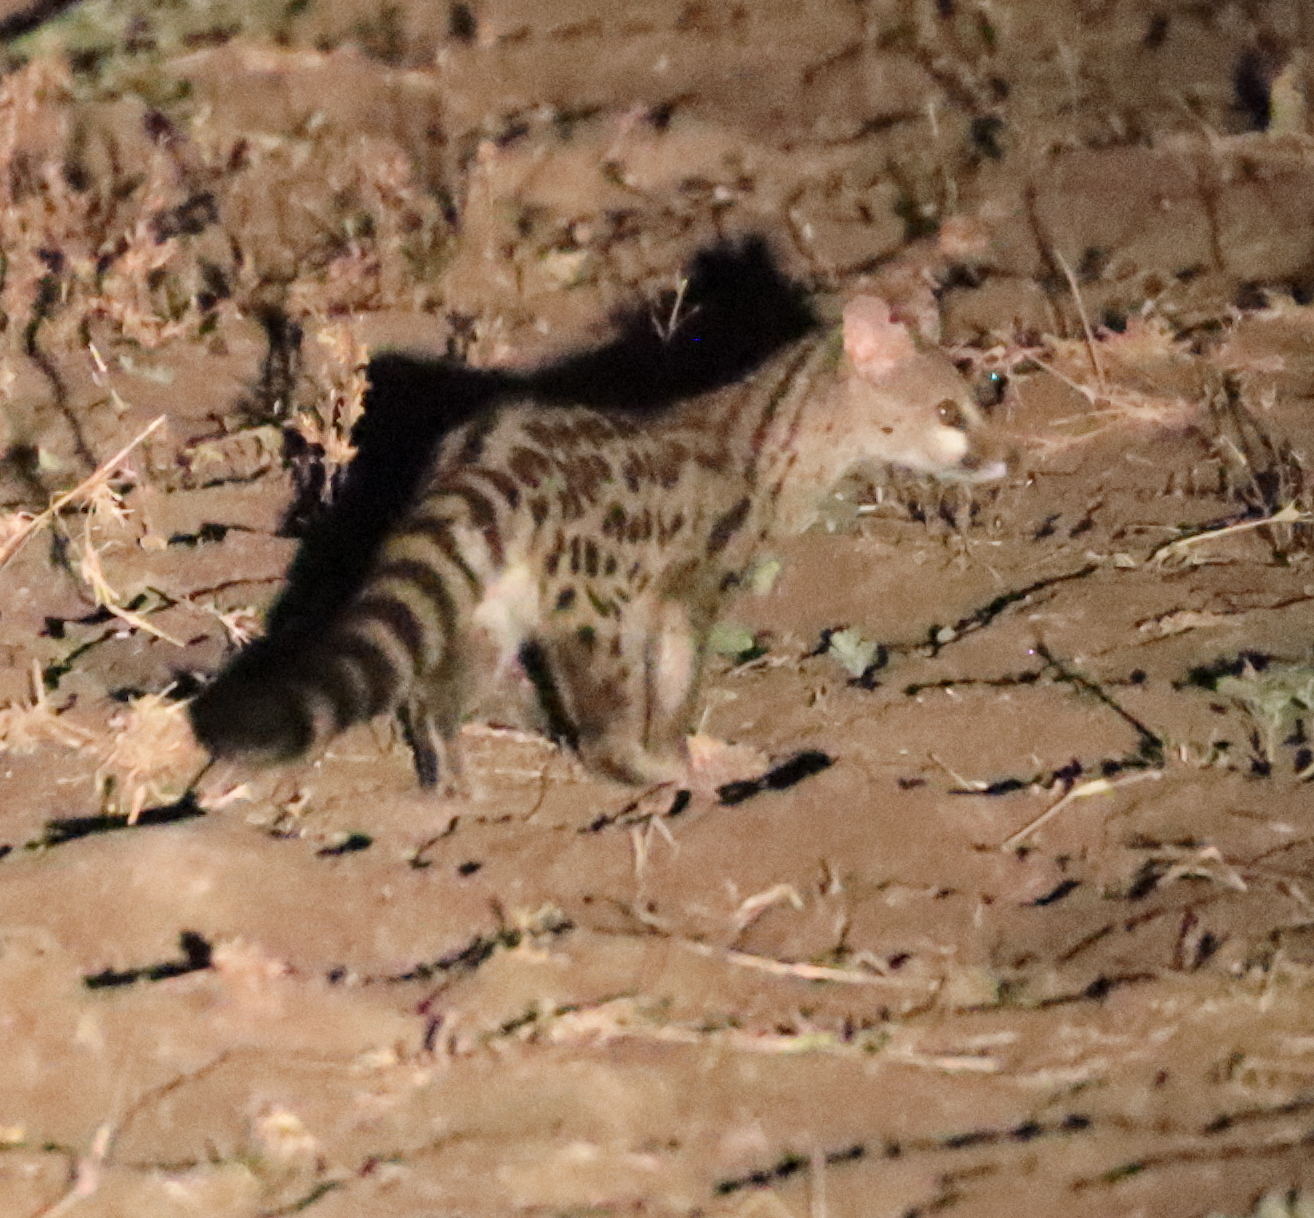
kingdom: Animalia
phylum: Chordata
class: Mammalia
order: Carnivora
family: Viverridae
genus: Genetta
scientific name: Genetta maculata
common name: Rusty-spotted genet
